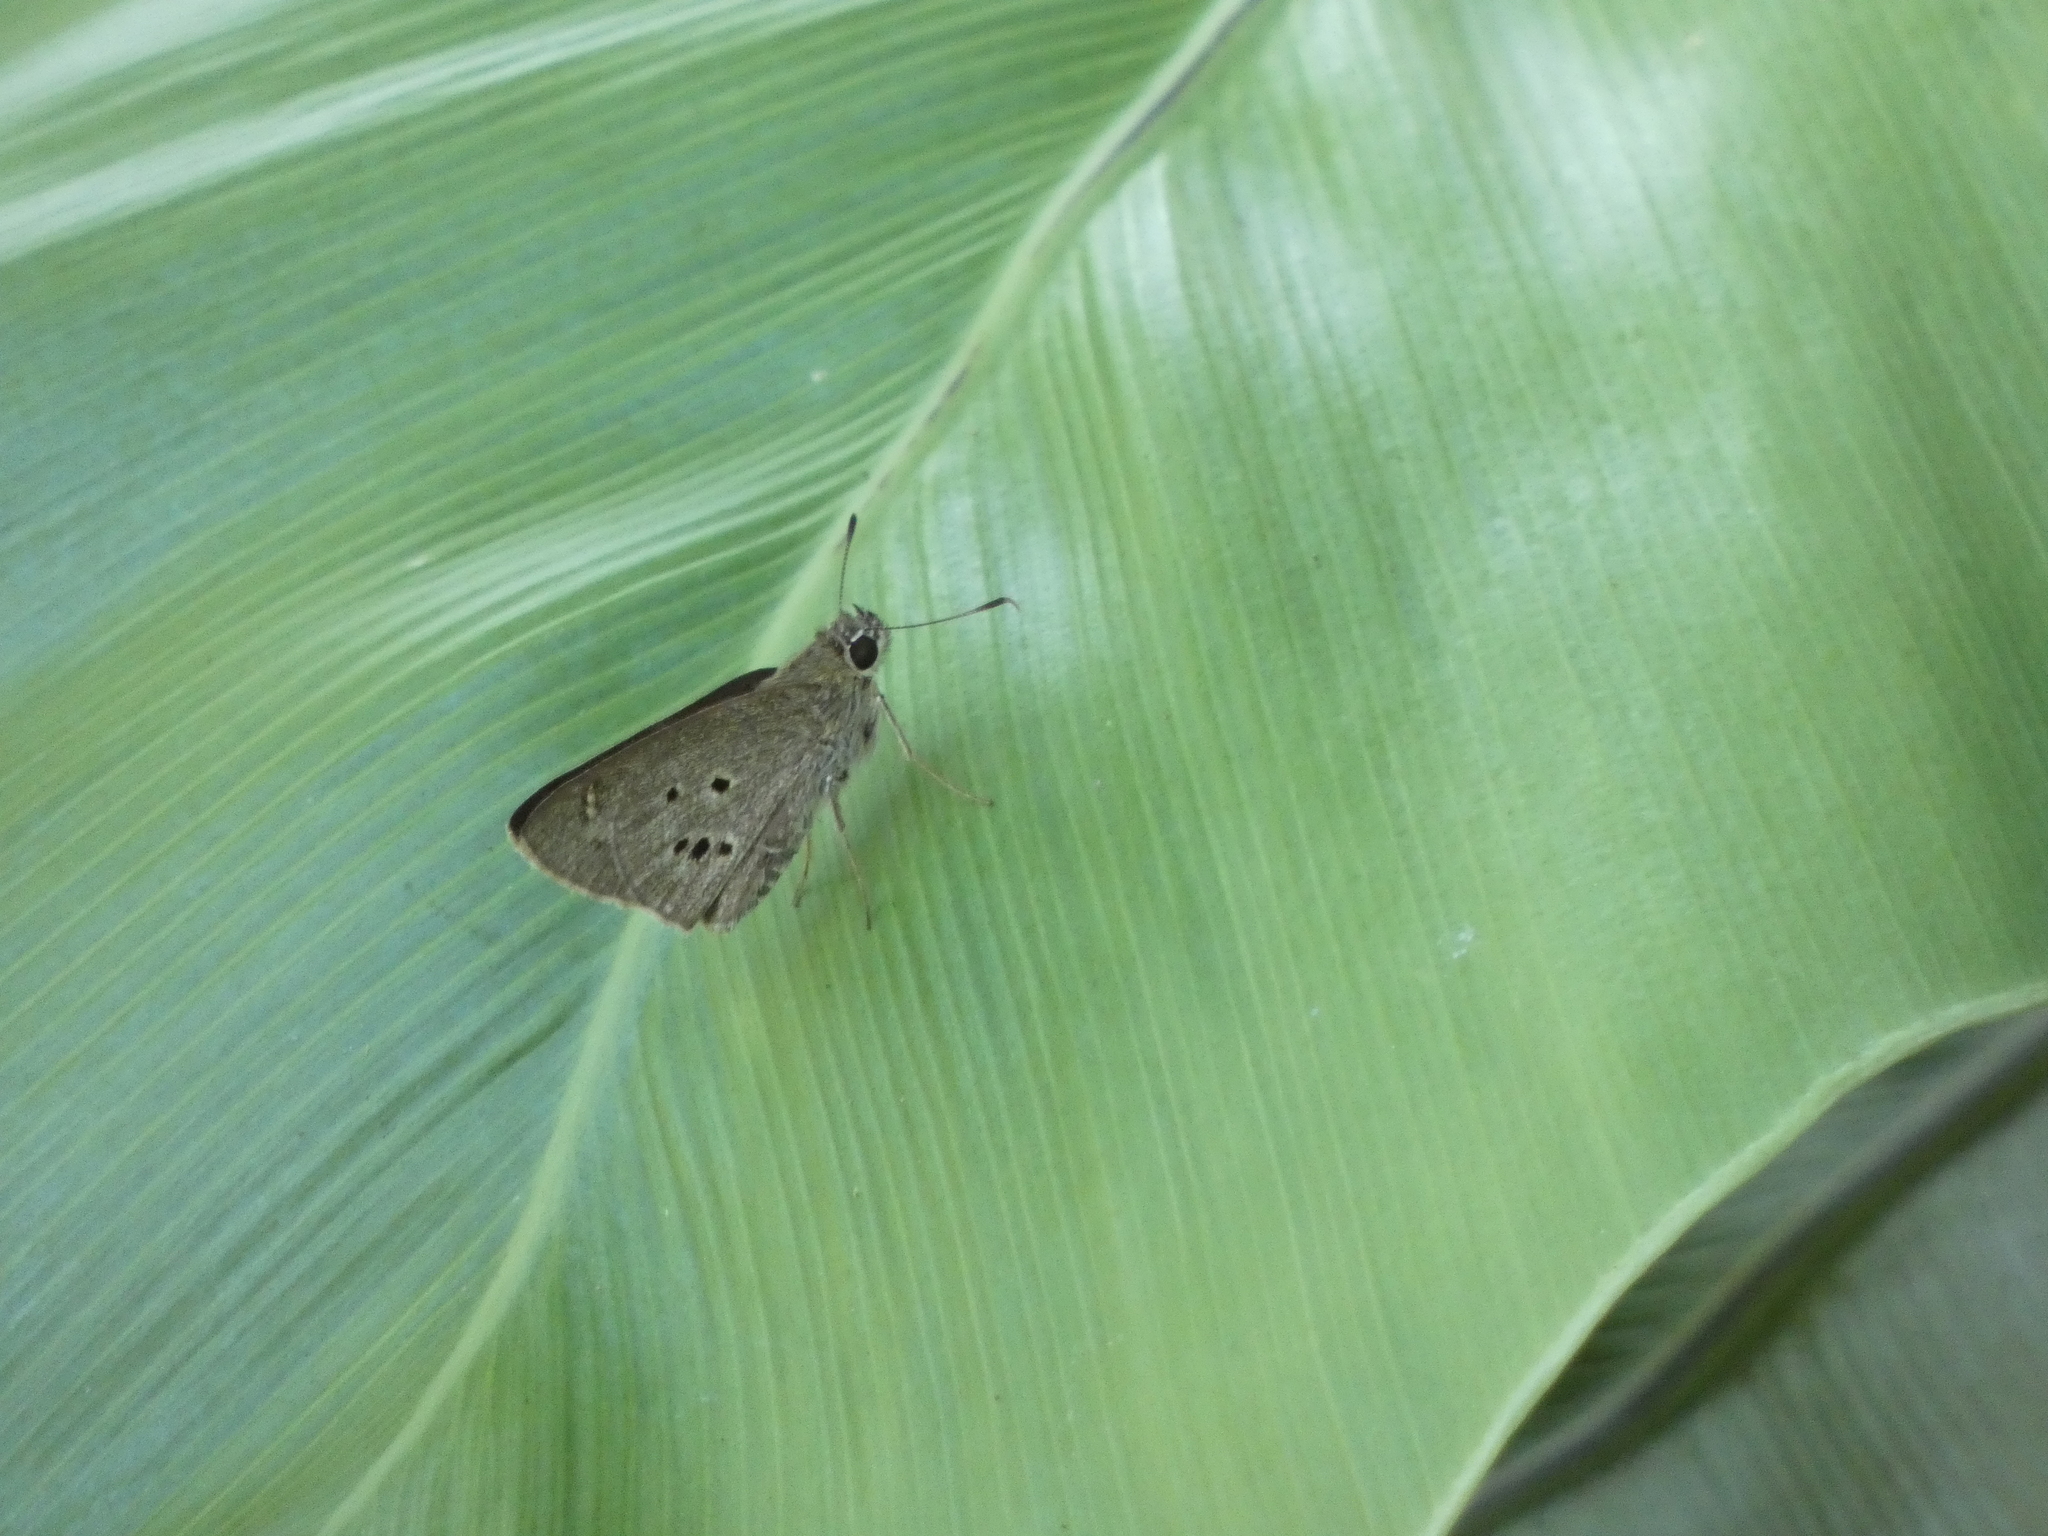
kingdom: Animalia
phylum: Arthropoda
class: Insecta
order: Lepidoptera
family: Hesperiidae
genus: Suastus
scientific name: Suastus gremius
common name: Indian palm bob
